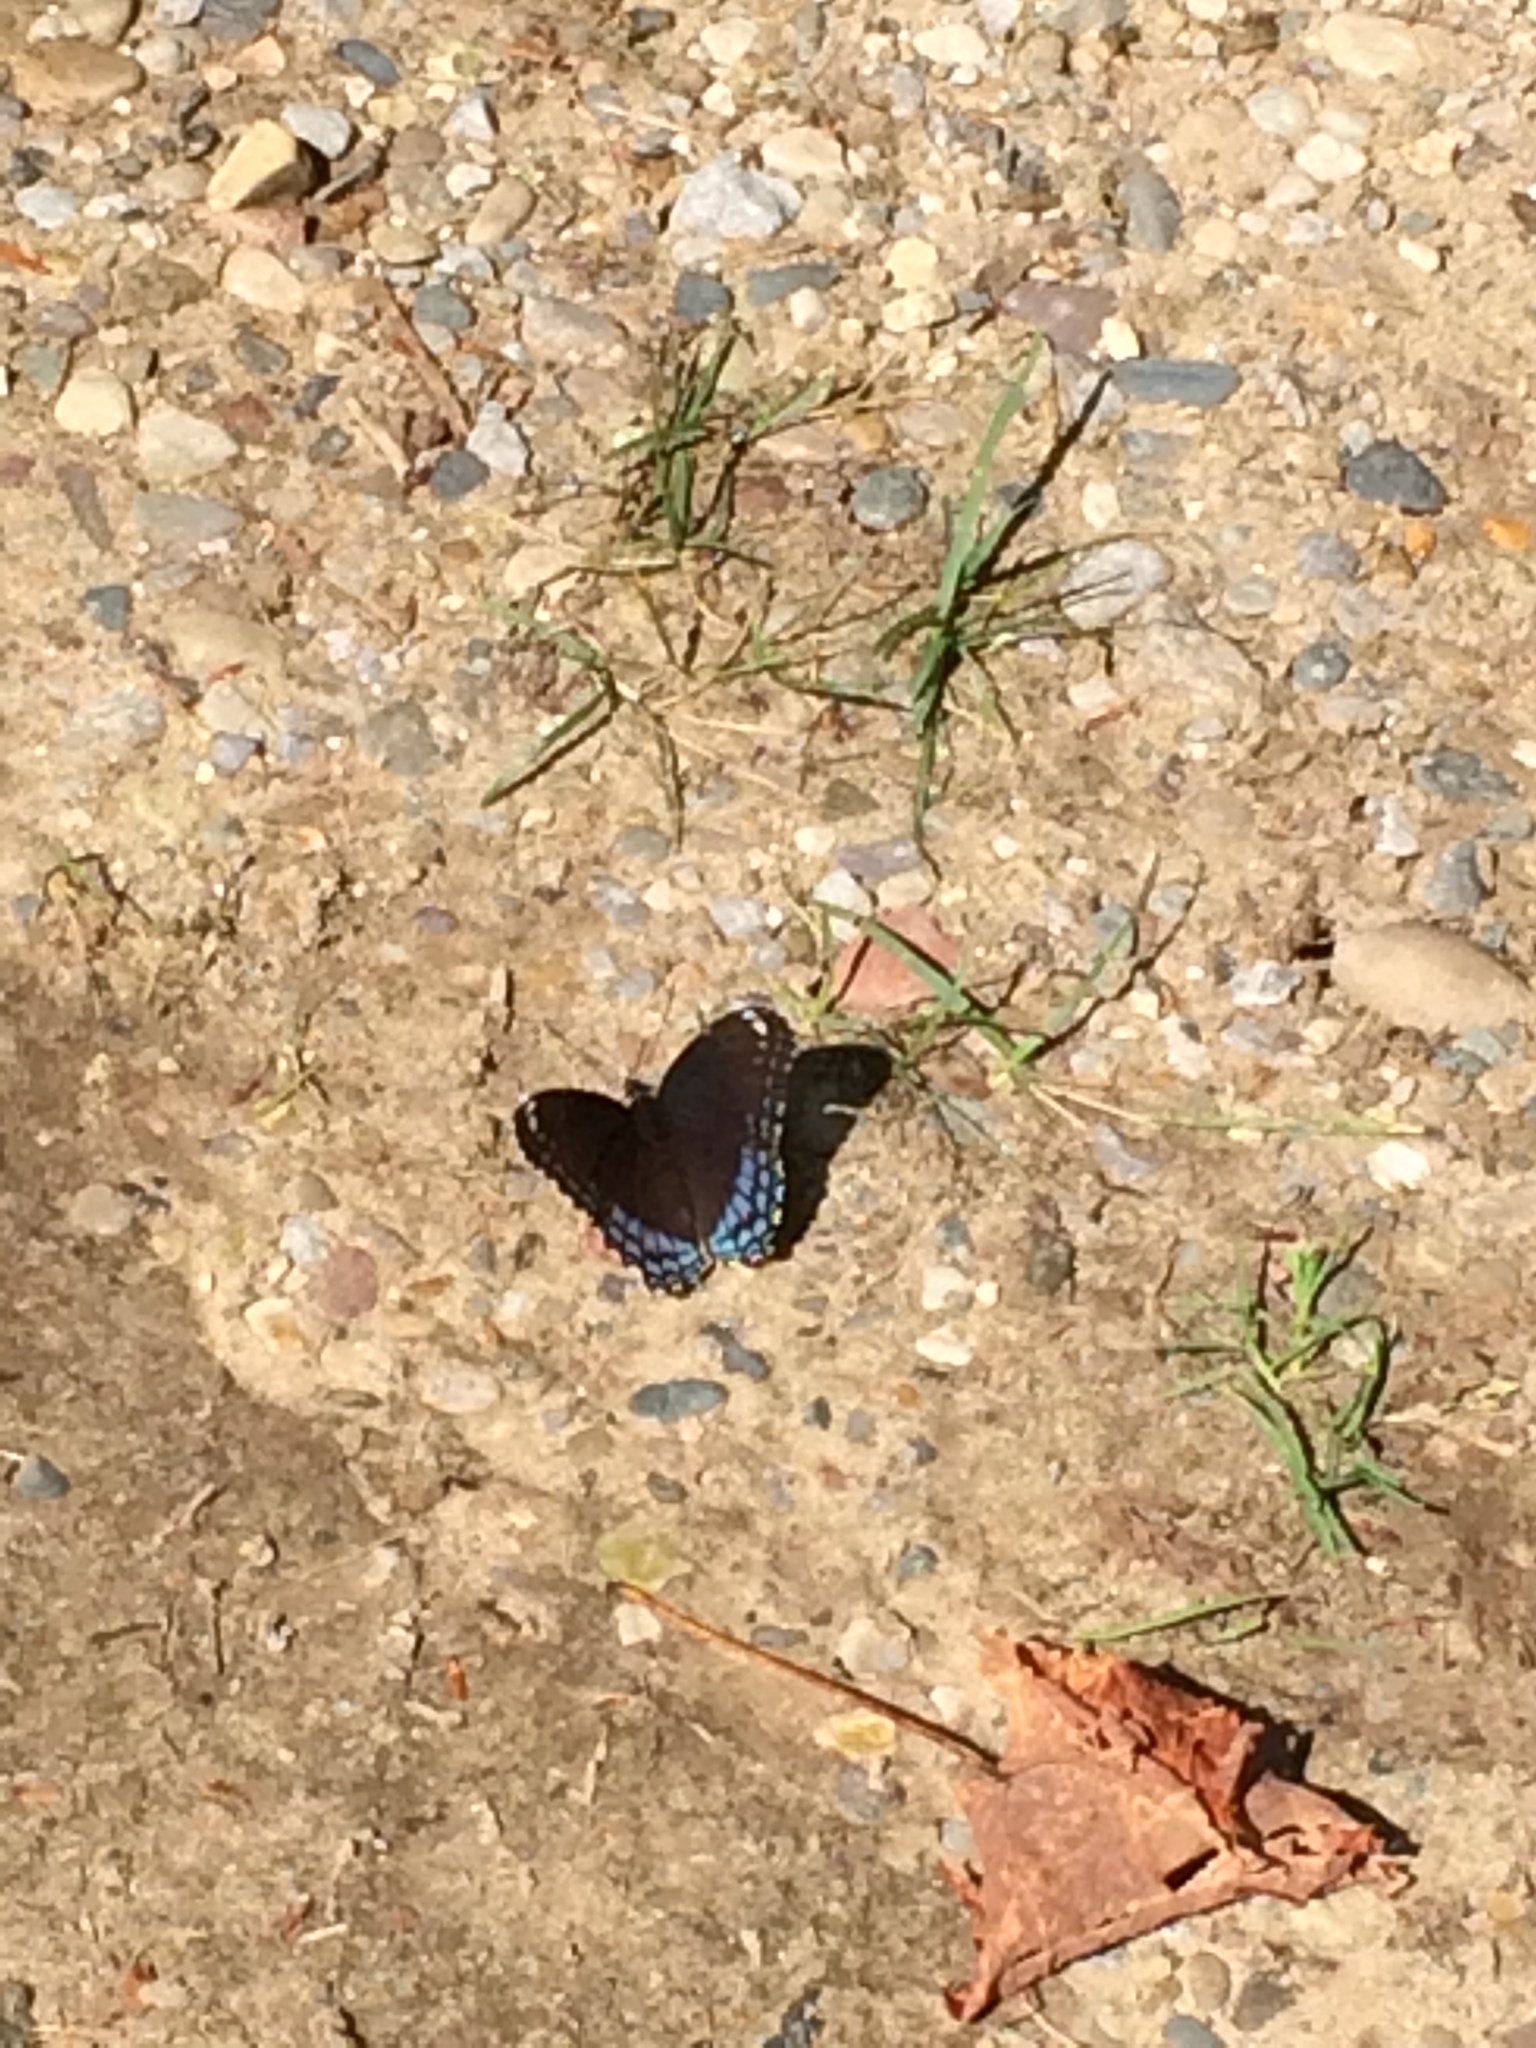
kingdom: Animalia
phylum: Arthropoda
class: Insecta
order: Lepidoptera
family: Nymphalidae
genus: Limenitis
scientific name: Limenitis arthemis
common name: Red-spotted admiral
